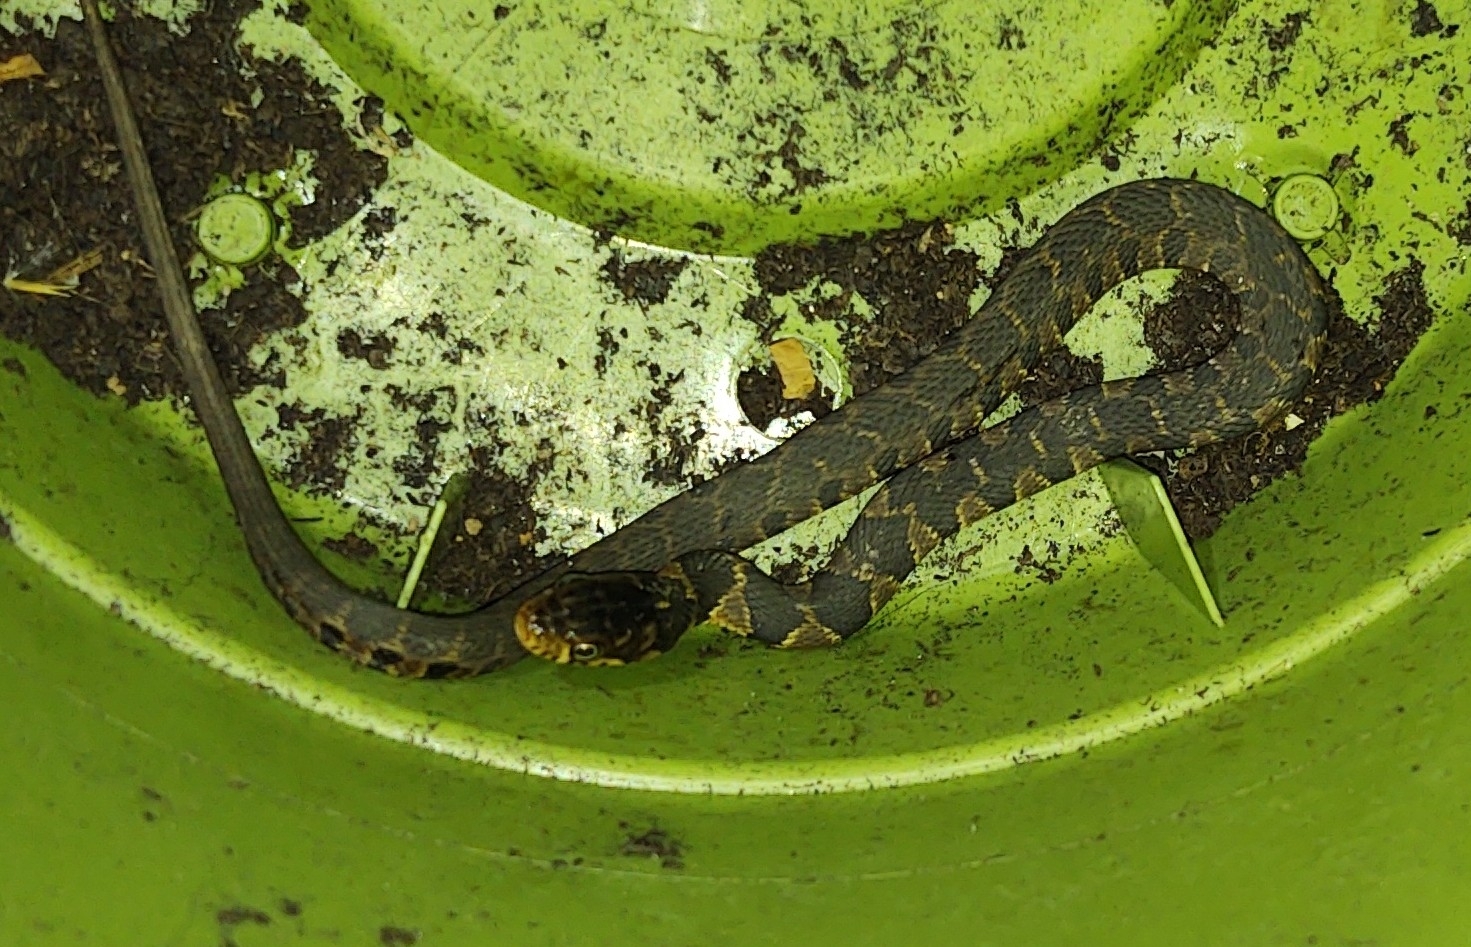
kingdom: Animalia
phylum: Chordata
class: Squamata
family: Colubridae
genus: Nerodia
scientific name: Nerodia erythrogaster
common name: Plainbelly water snake
